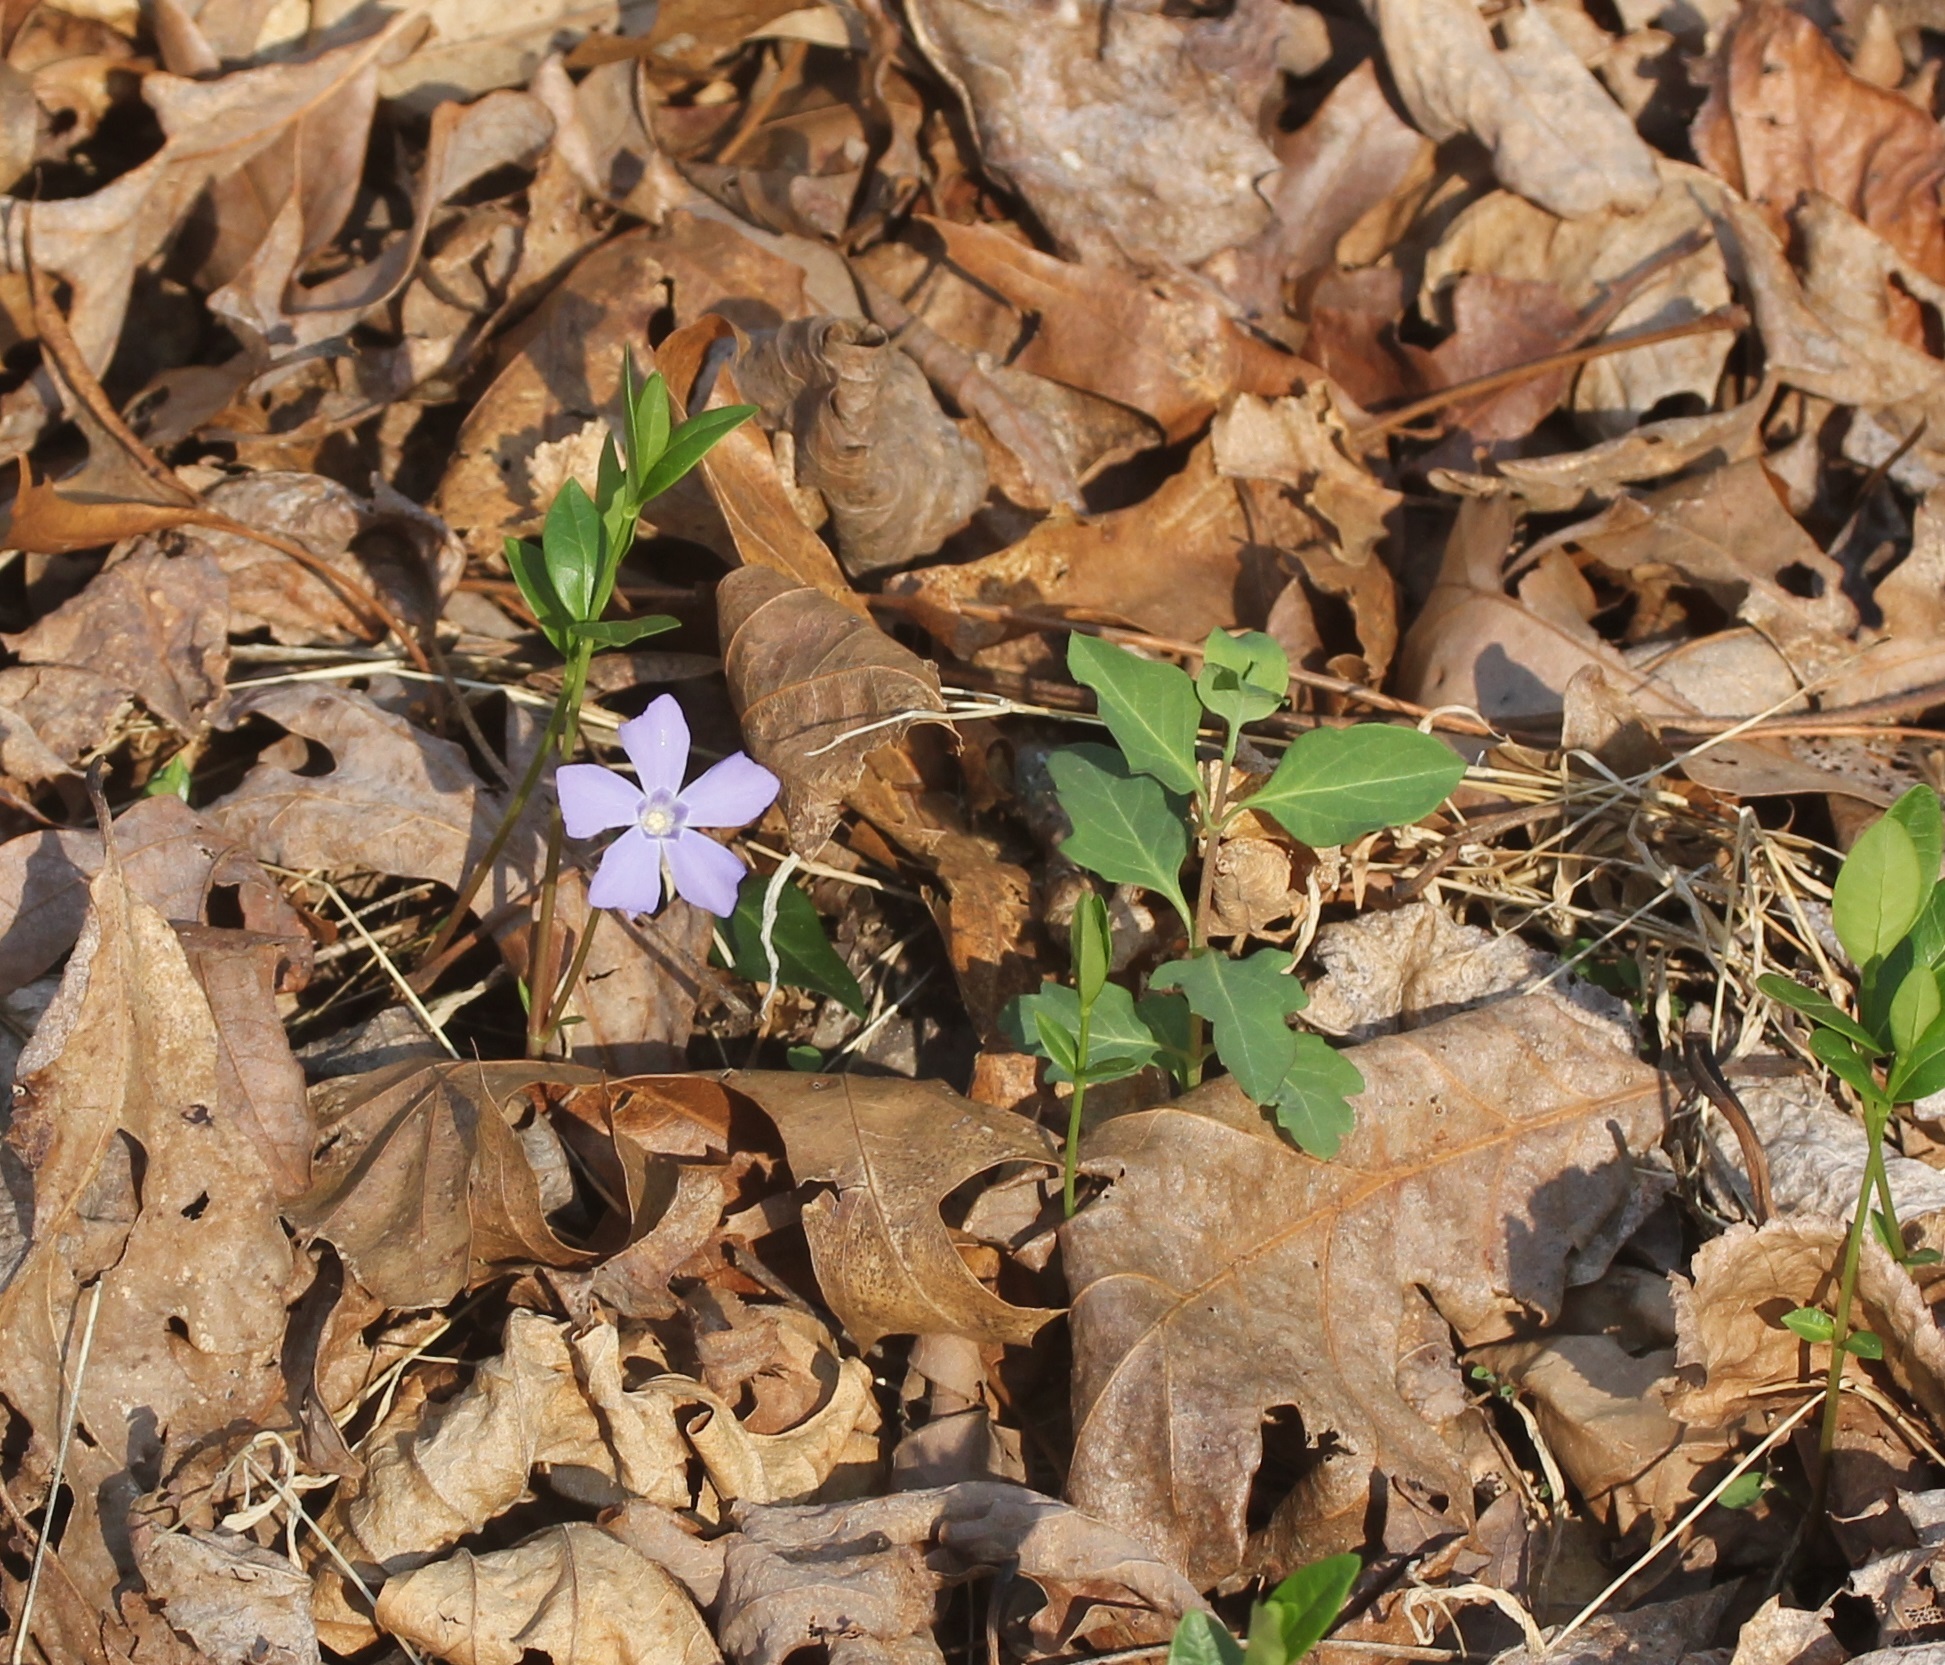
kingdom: Plantae
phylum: Tracheophyta
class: Magnoliopsida
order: Gentianales
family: Apocynaceae
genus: Vinca
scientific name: Vinca minor
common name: Lesser periwinkle
